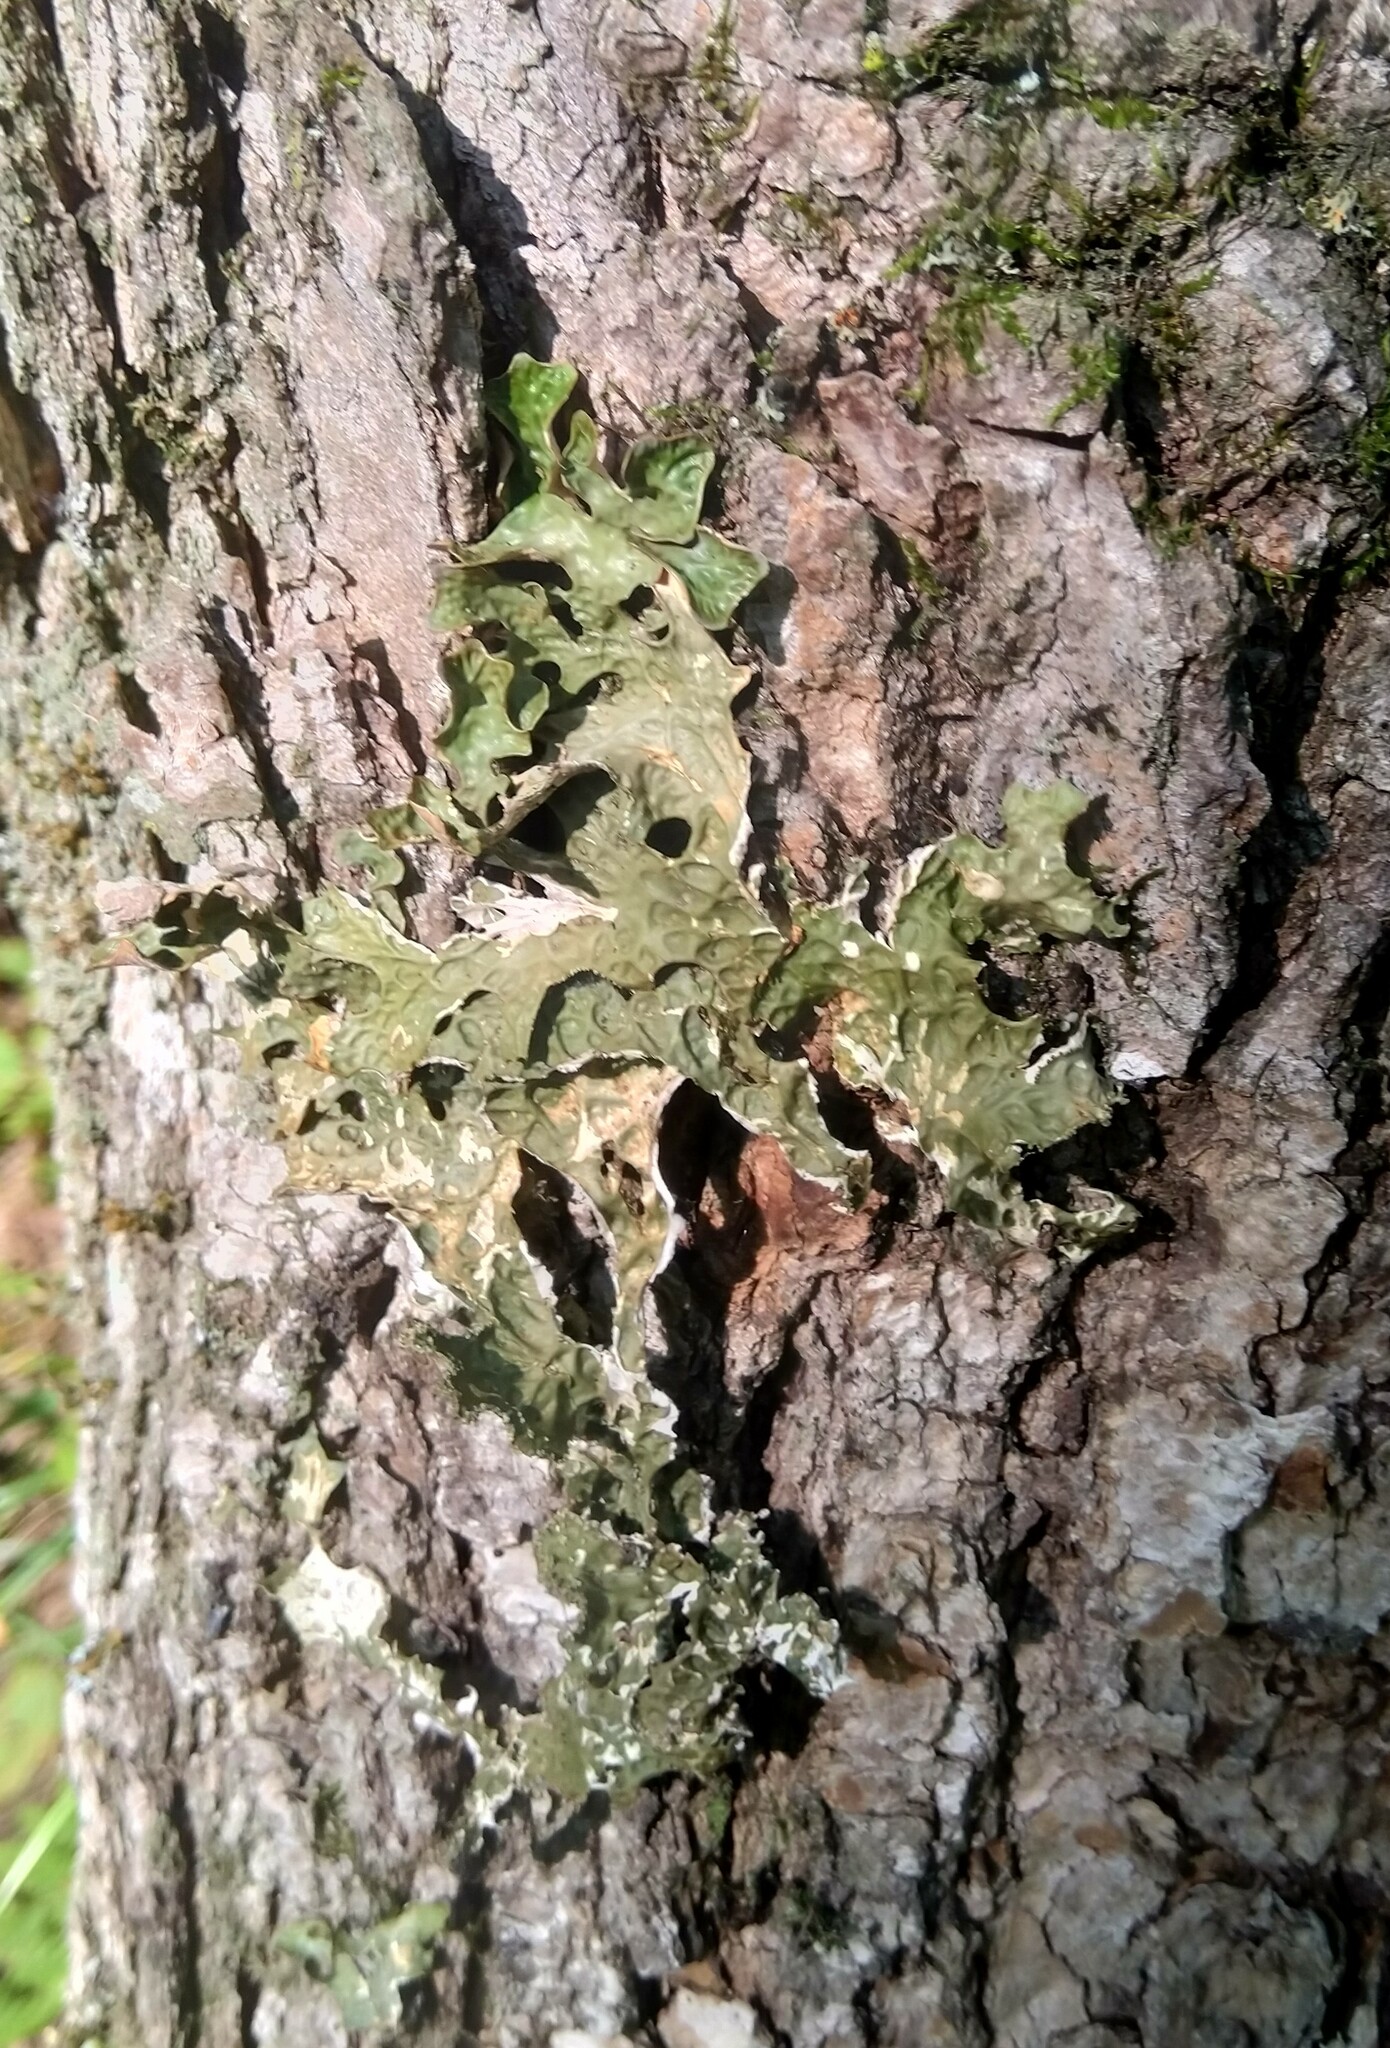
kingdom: Fungi
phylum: Ascomycota
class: Lecanoromycetes
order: Peltigerales
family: Lobariaceae
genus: Lobaria
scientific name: Lobaria pulmonaria
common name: Lungwort
